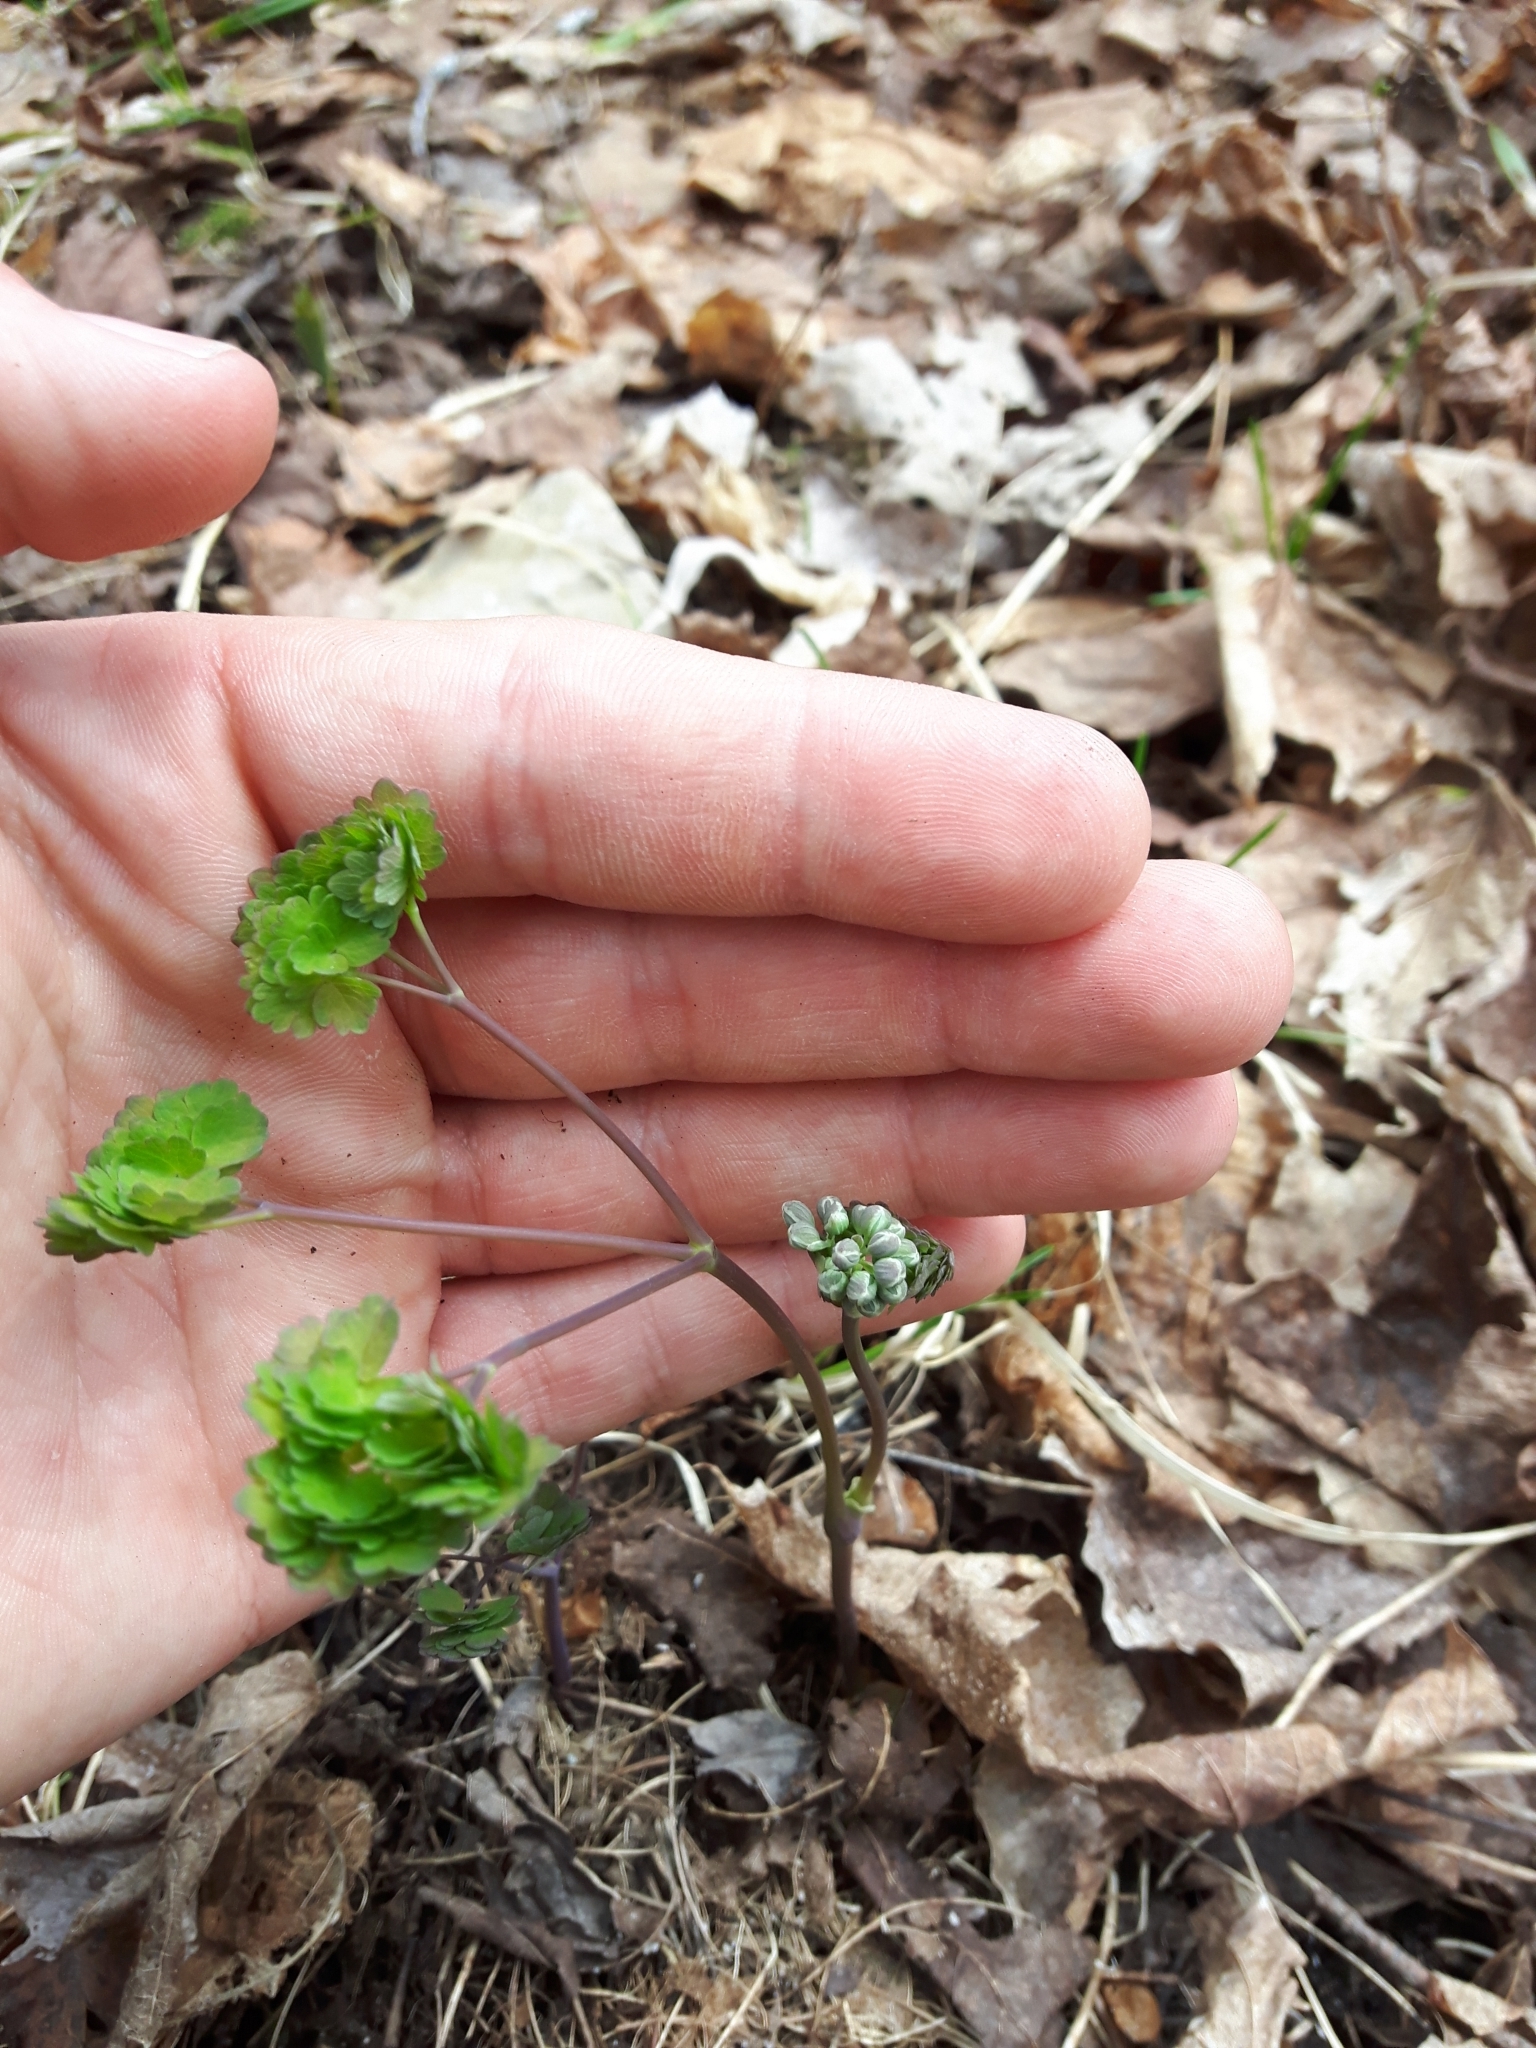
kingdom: Plantae
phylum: Tracheophyta
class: Magnoliopsida
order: Ranunculales
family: Ranunculaceae
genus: Thalictrum
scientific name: Thalictrum dioicum
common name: Early meadow-rue
